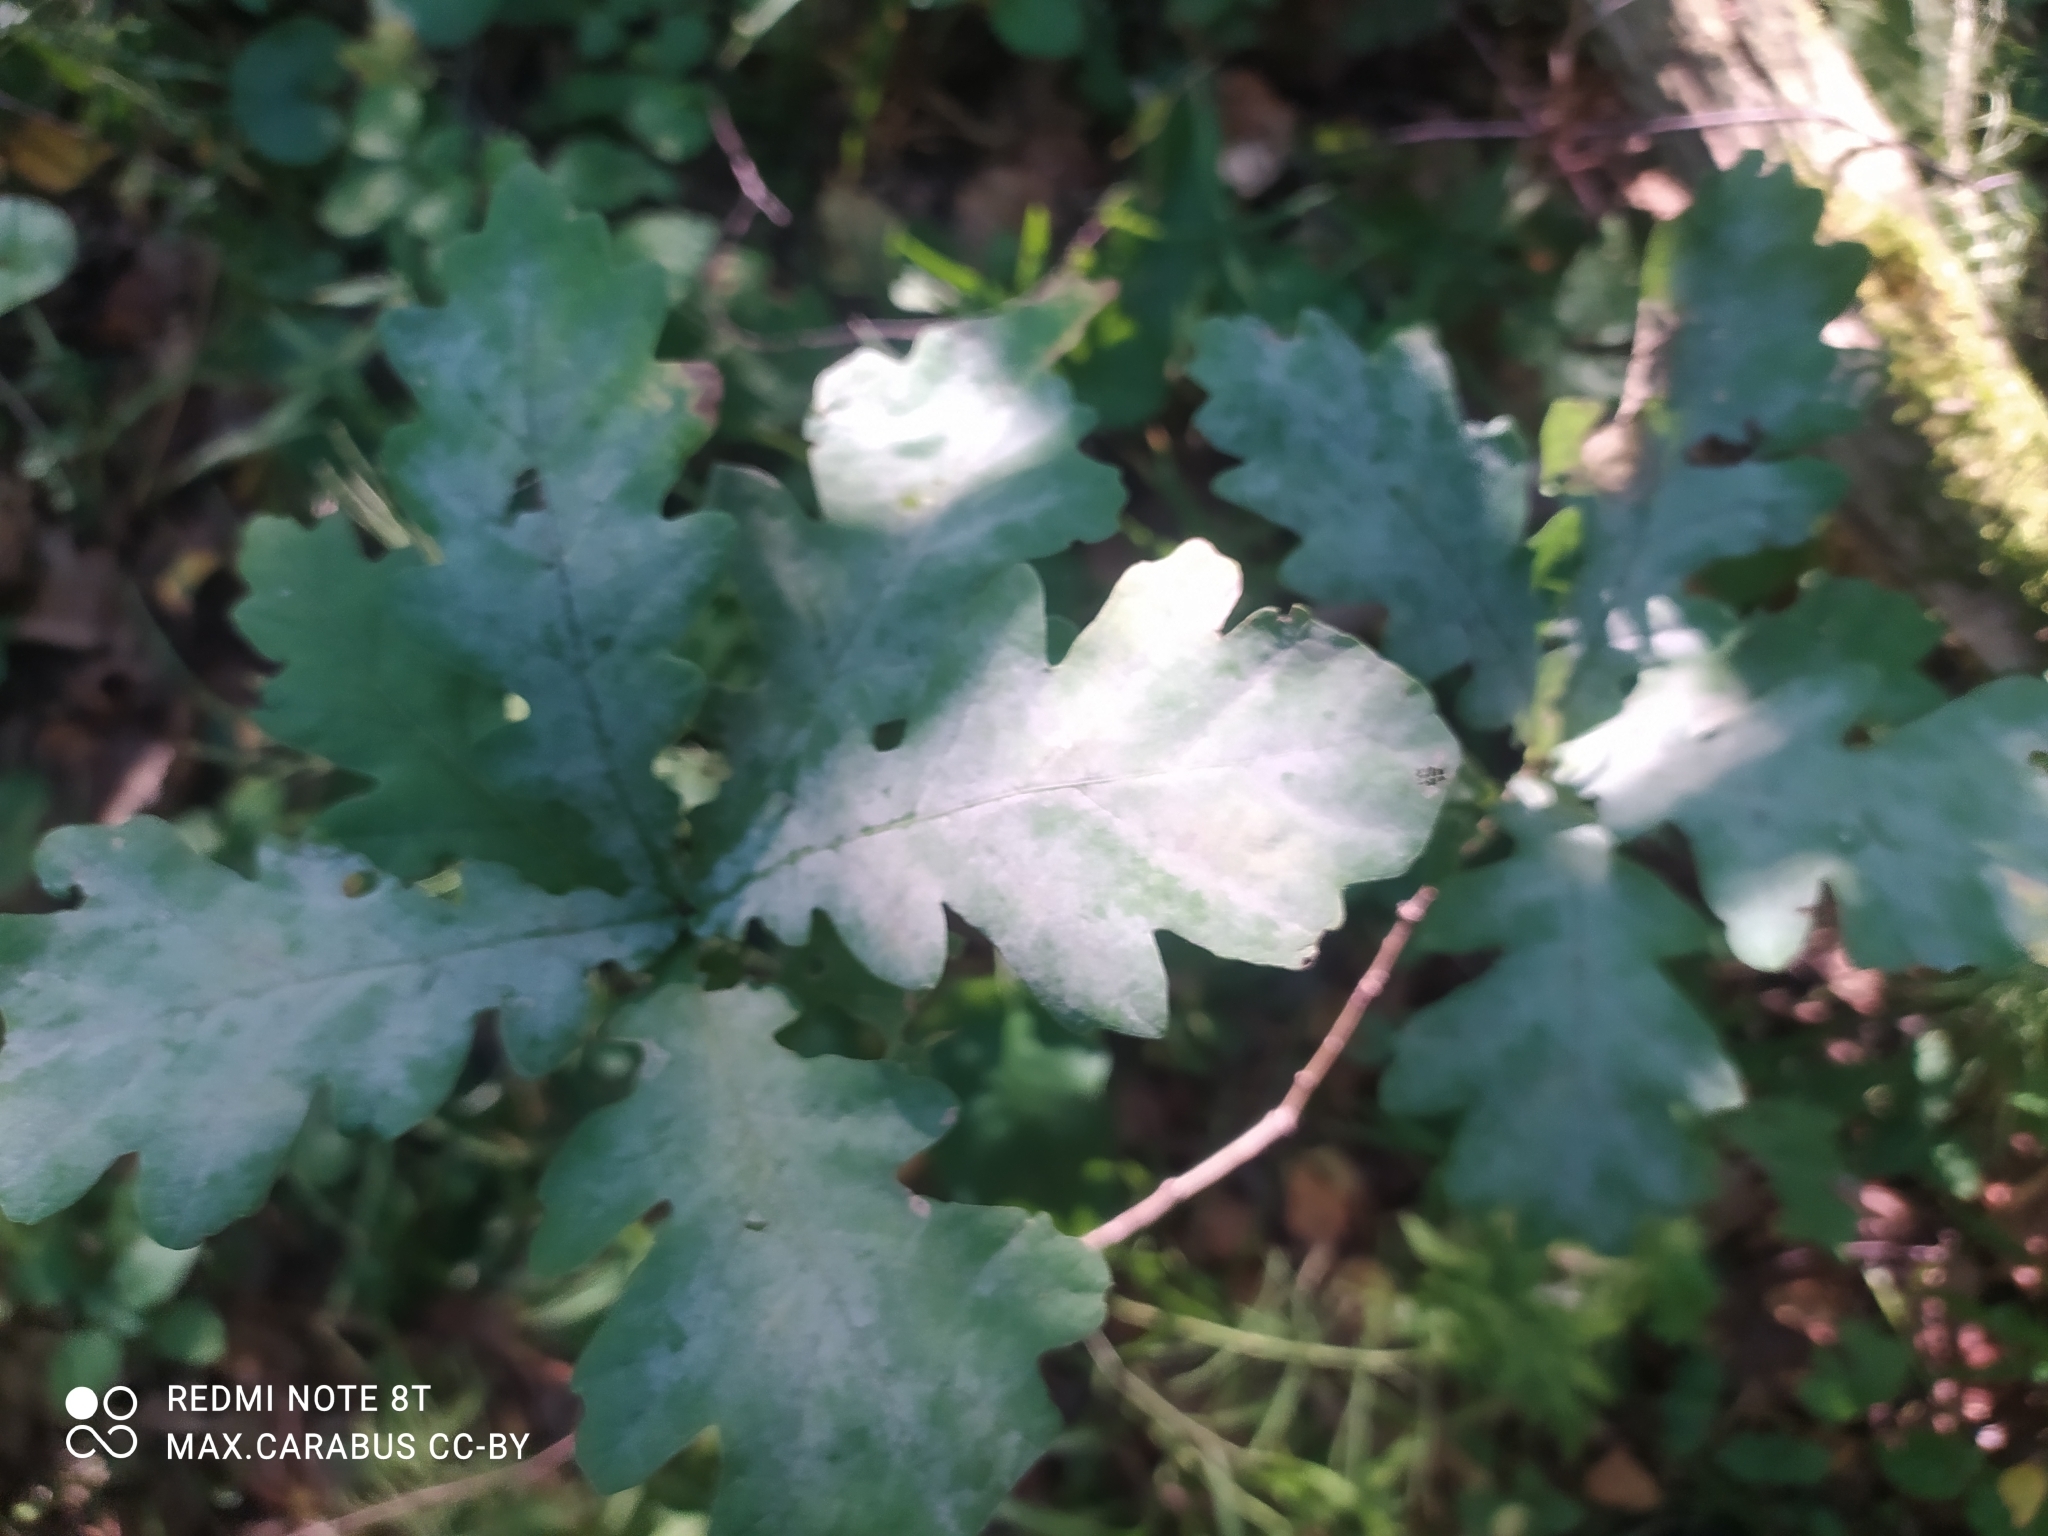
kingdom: Plantae
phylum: Tracheophyta
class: Magnoliopsida
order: Fagales
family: Fagaceae
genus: Quercus
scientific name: Quercus robur
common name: Pedunculate oak
